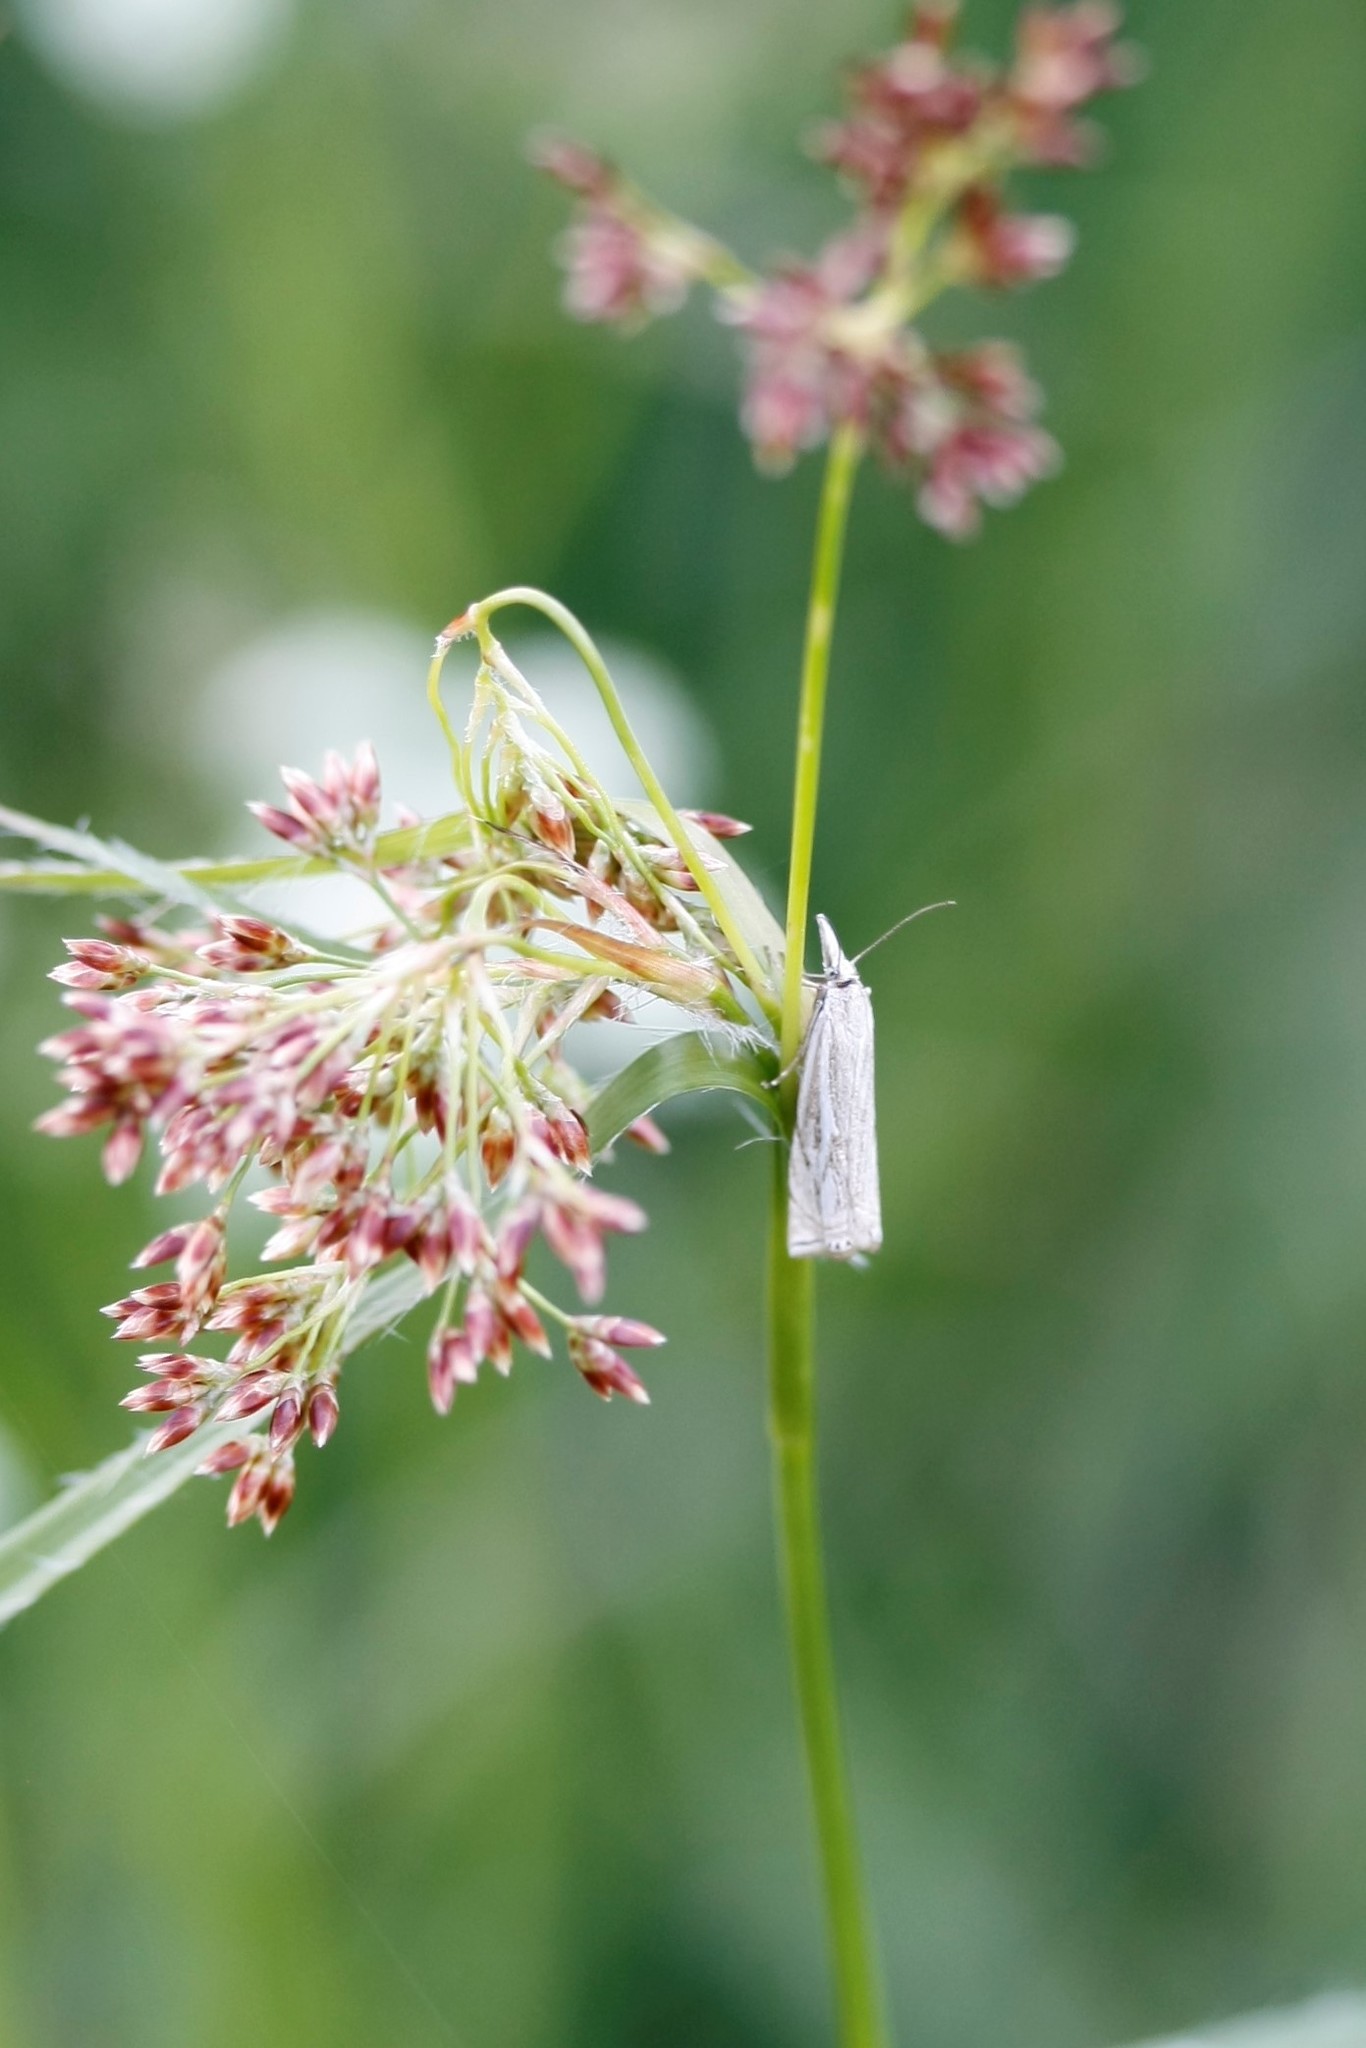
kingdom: Animalia
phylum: Arthropoda
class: Insecta
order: Lepidoptera
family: Crambidae
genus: Crambus
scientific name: Crambus nemorella
